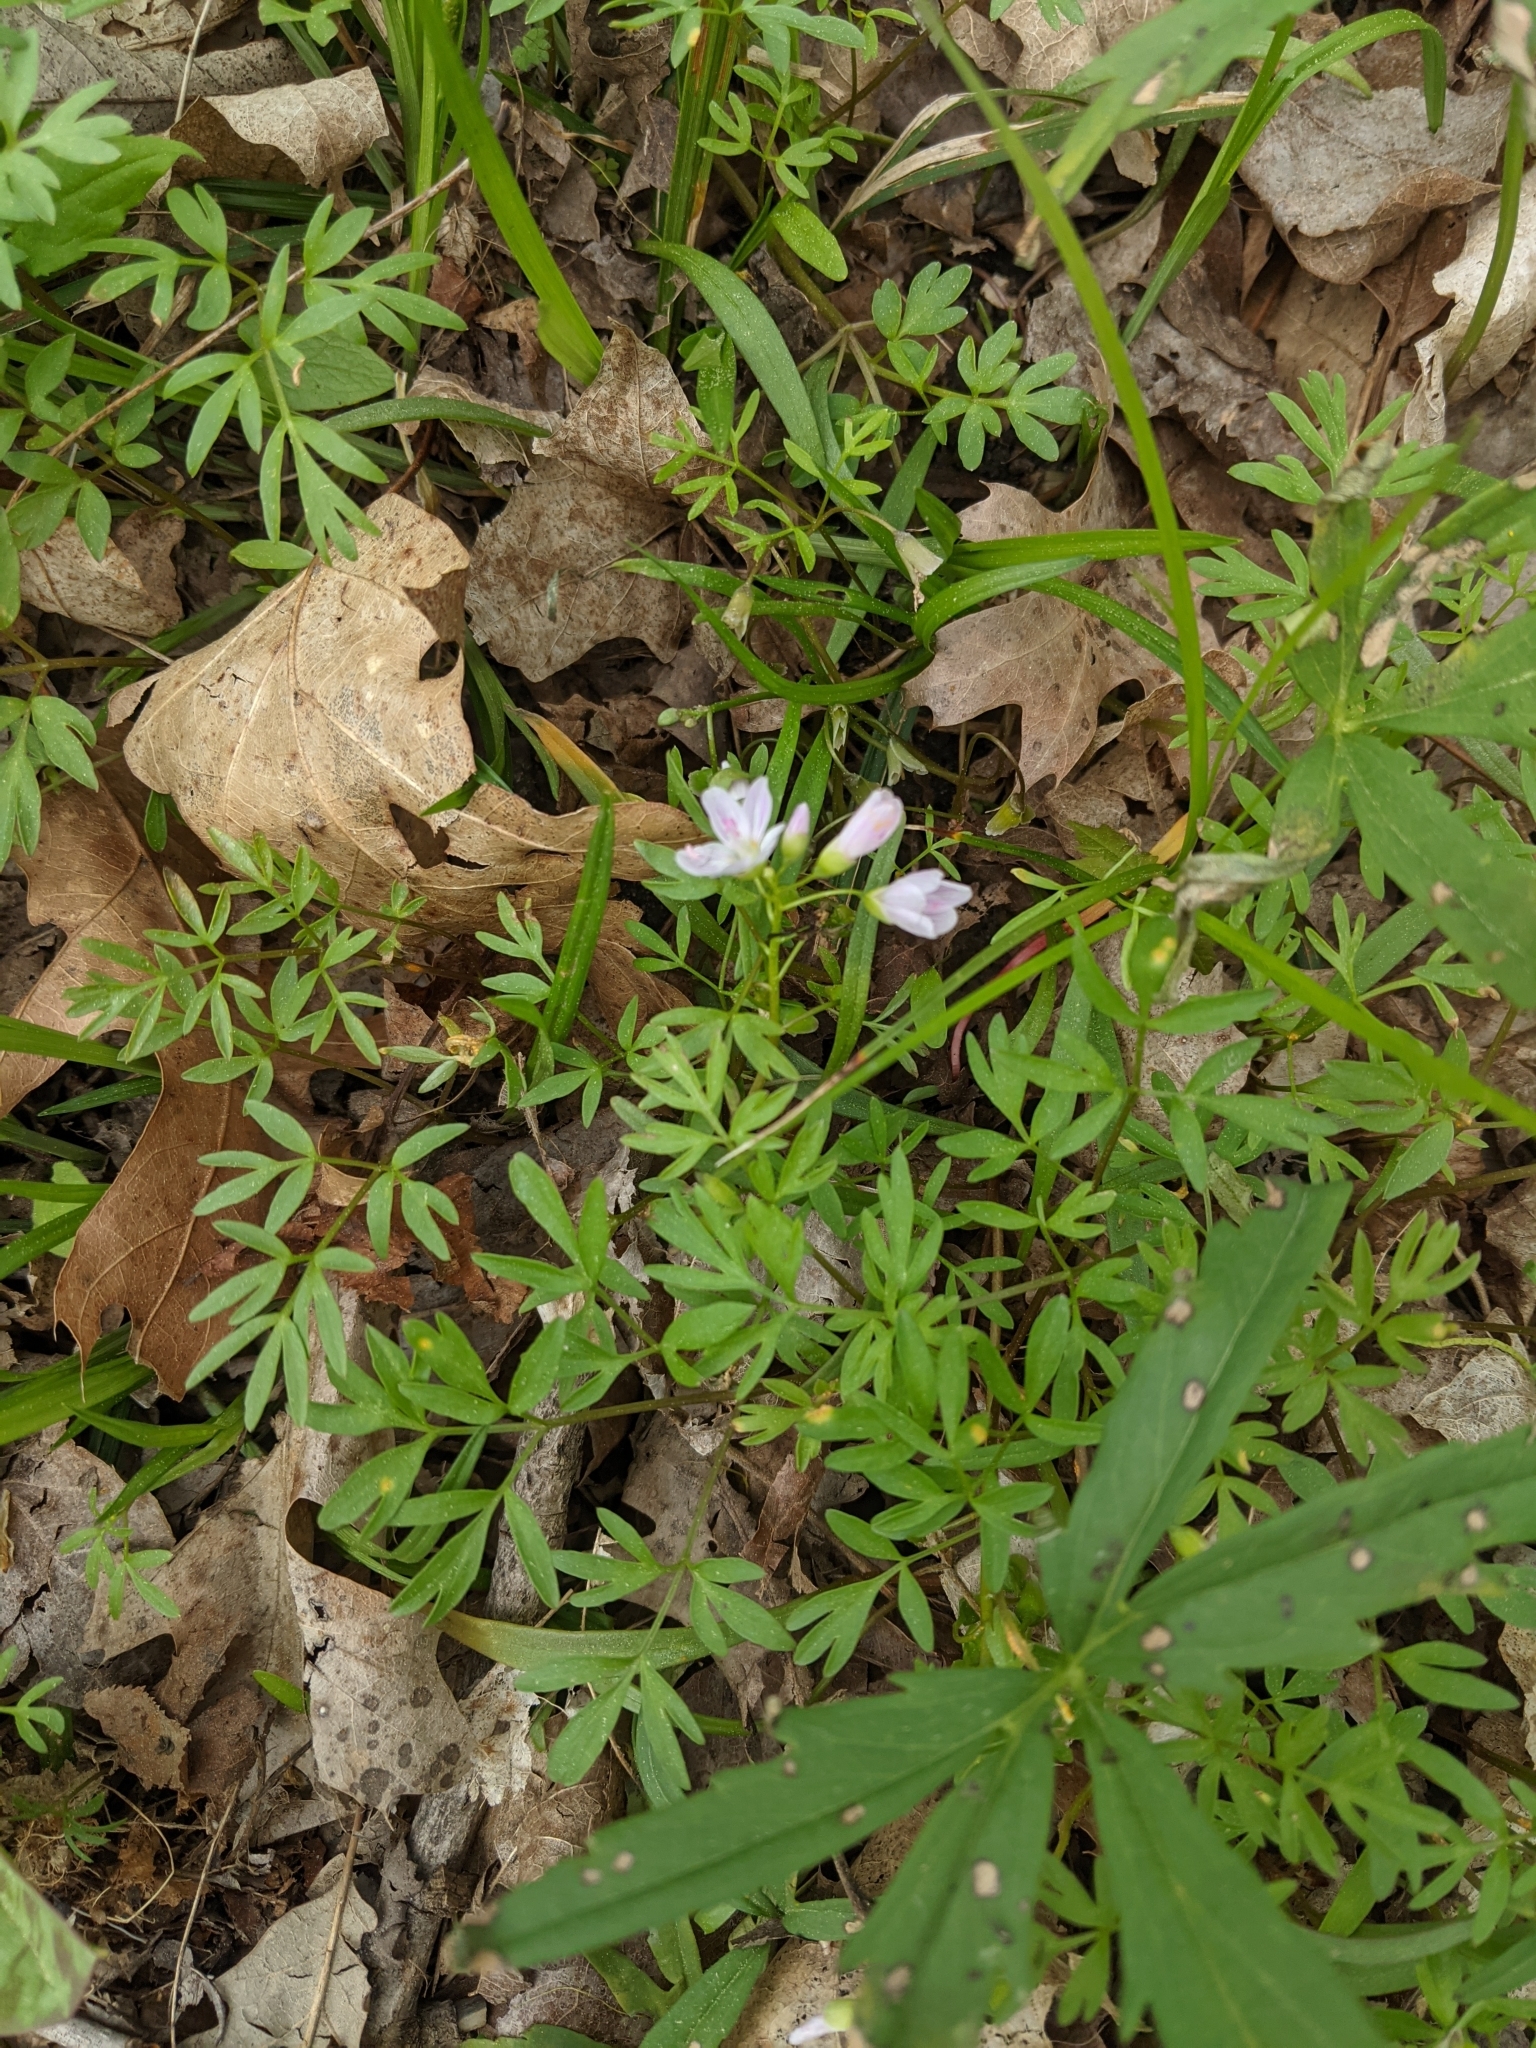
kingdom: Plantae
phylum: Tracheophyta
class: Magnoliopsida
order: Brassicales
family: Limnanthaceae
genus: Floerkea
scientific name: Floerkea proserpinacoides
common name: False mermaid
